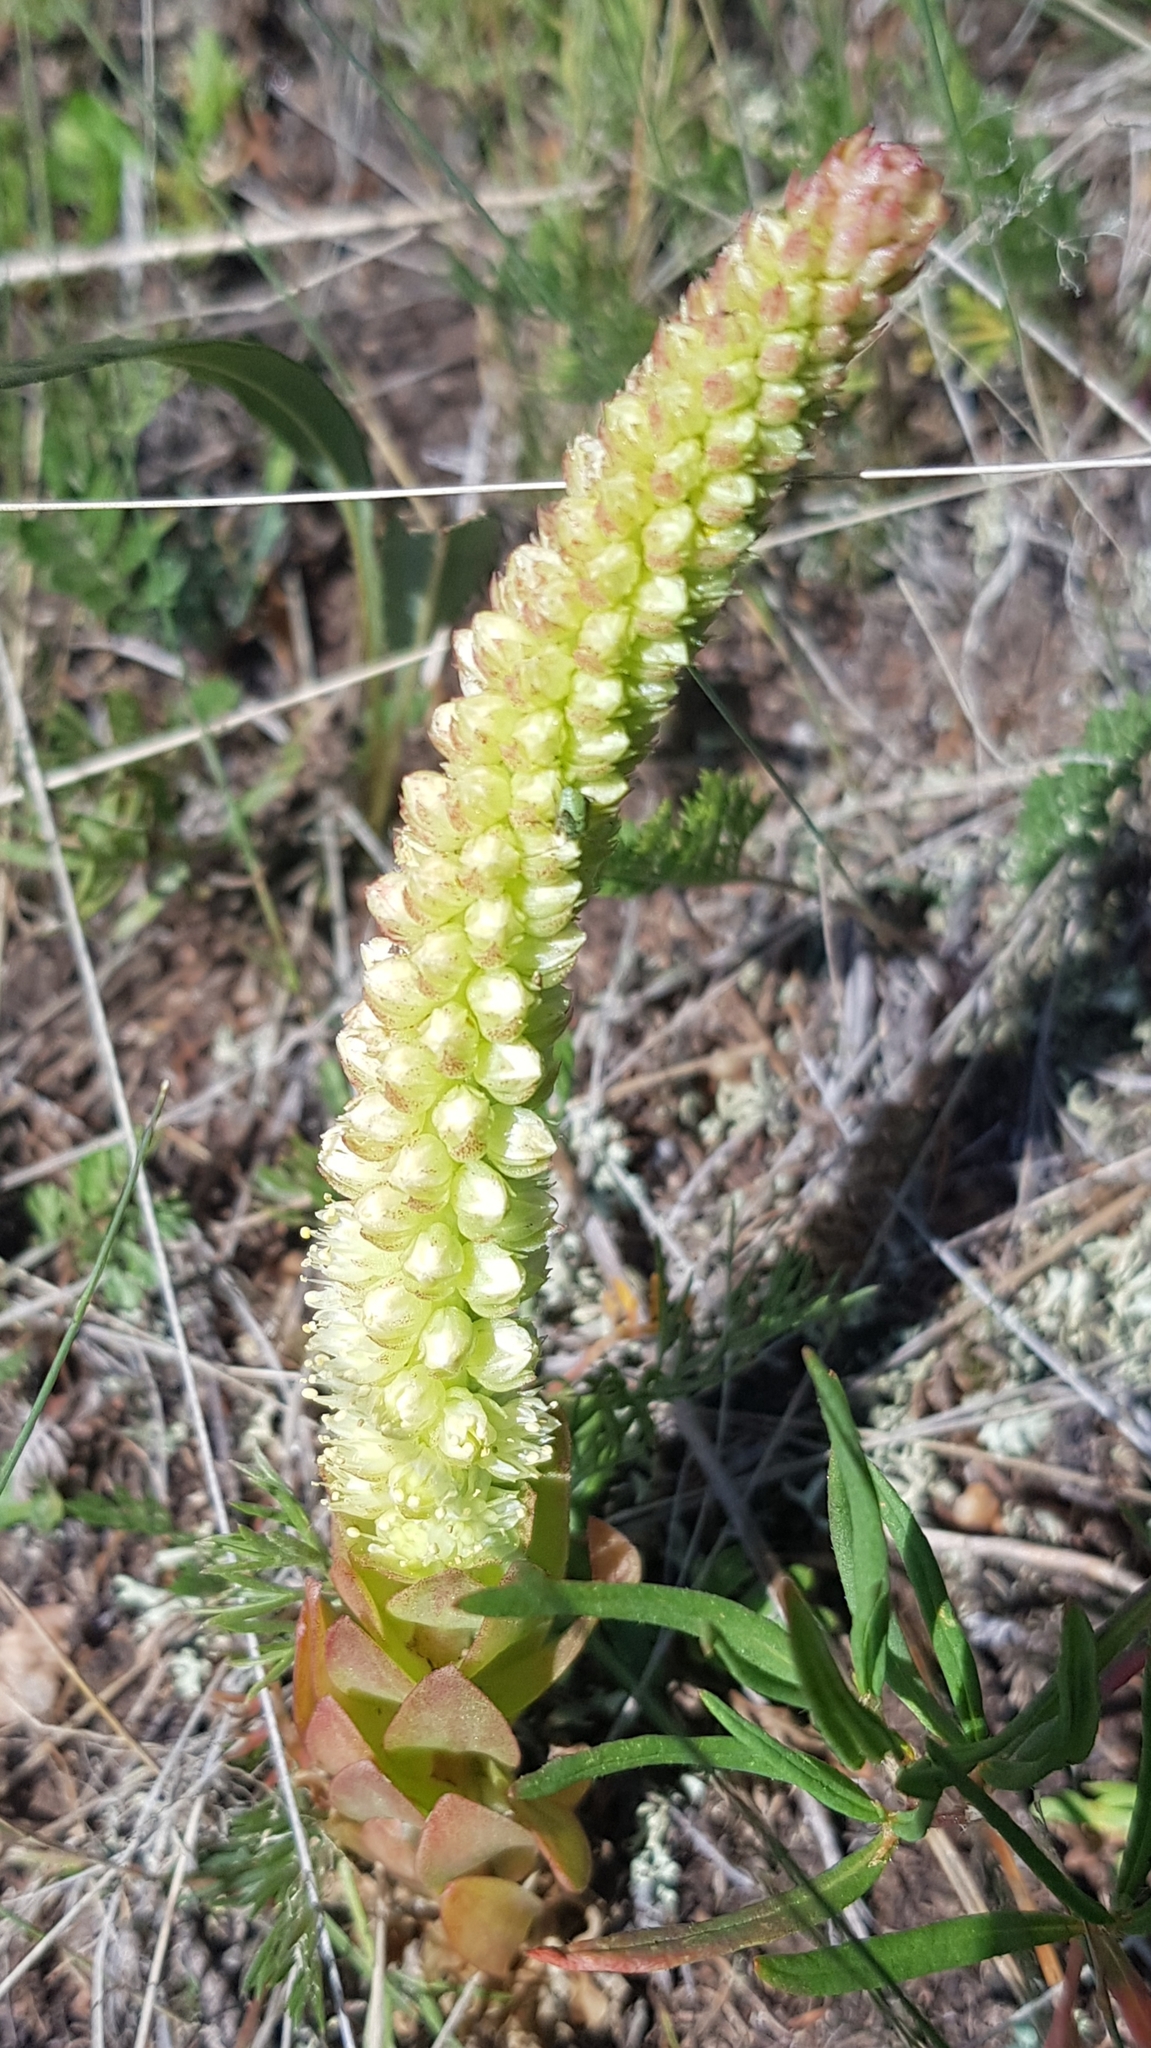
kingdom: Plantae
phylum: Tracheophyta
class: Magnoliopsida
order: Saxifragales
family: Crassulaceae
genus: Orostachys
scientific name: Orostachys malacophylla
